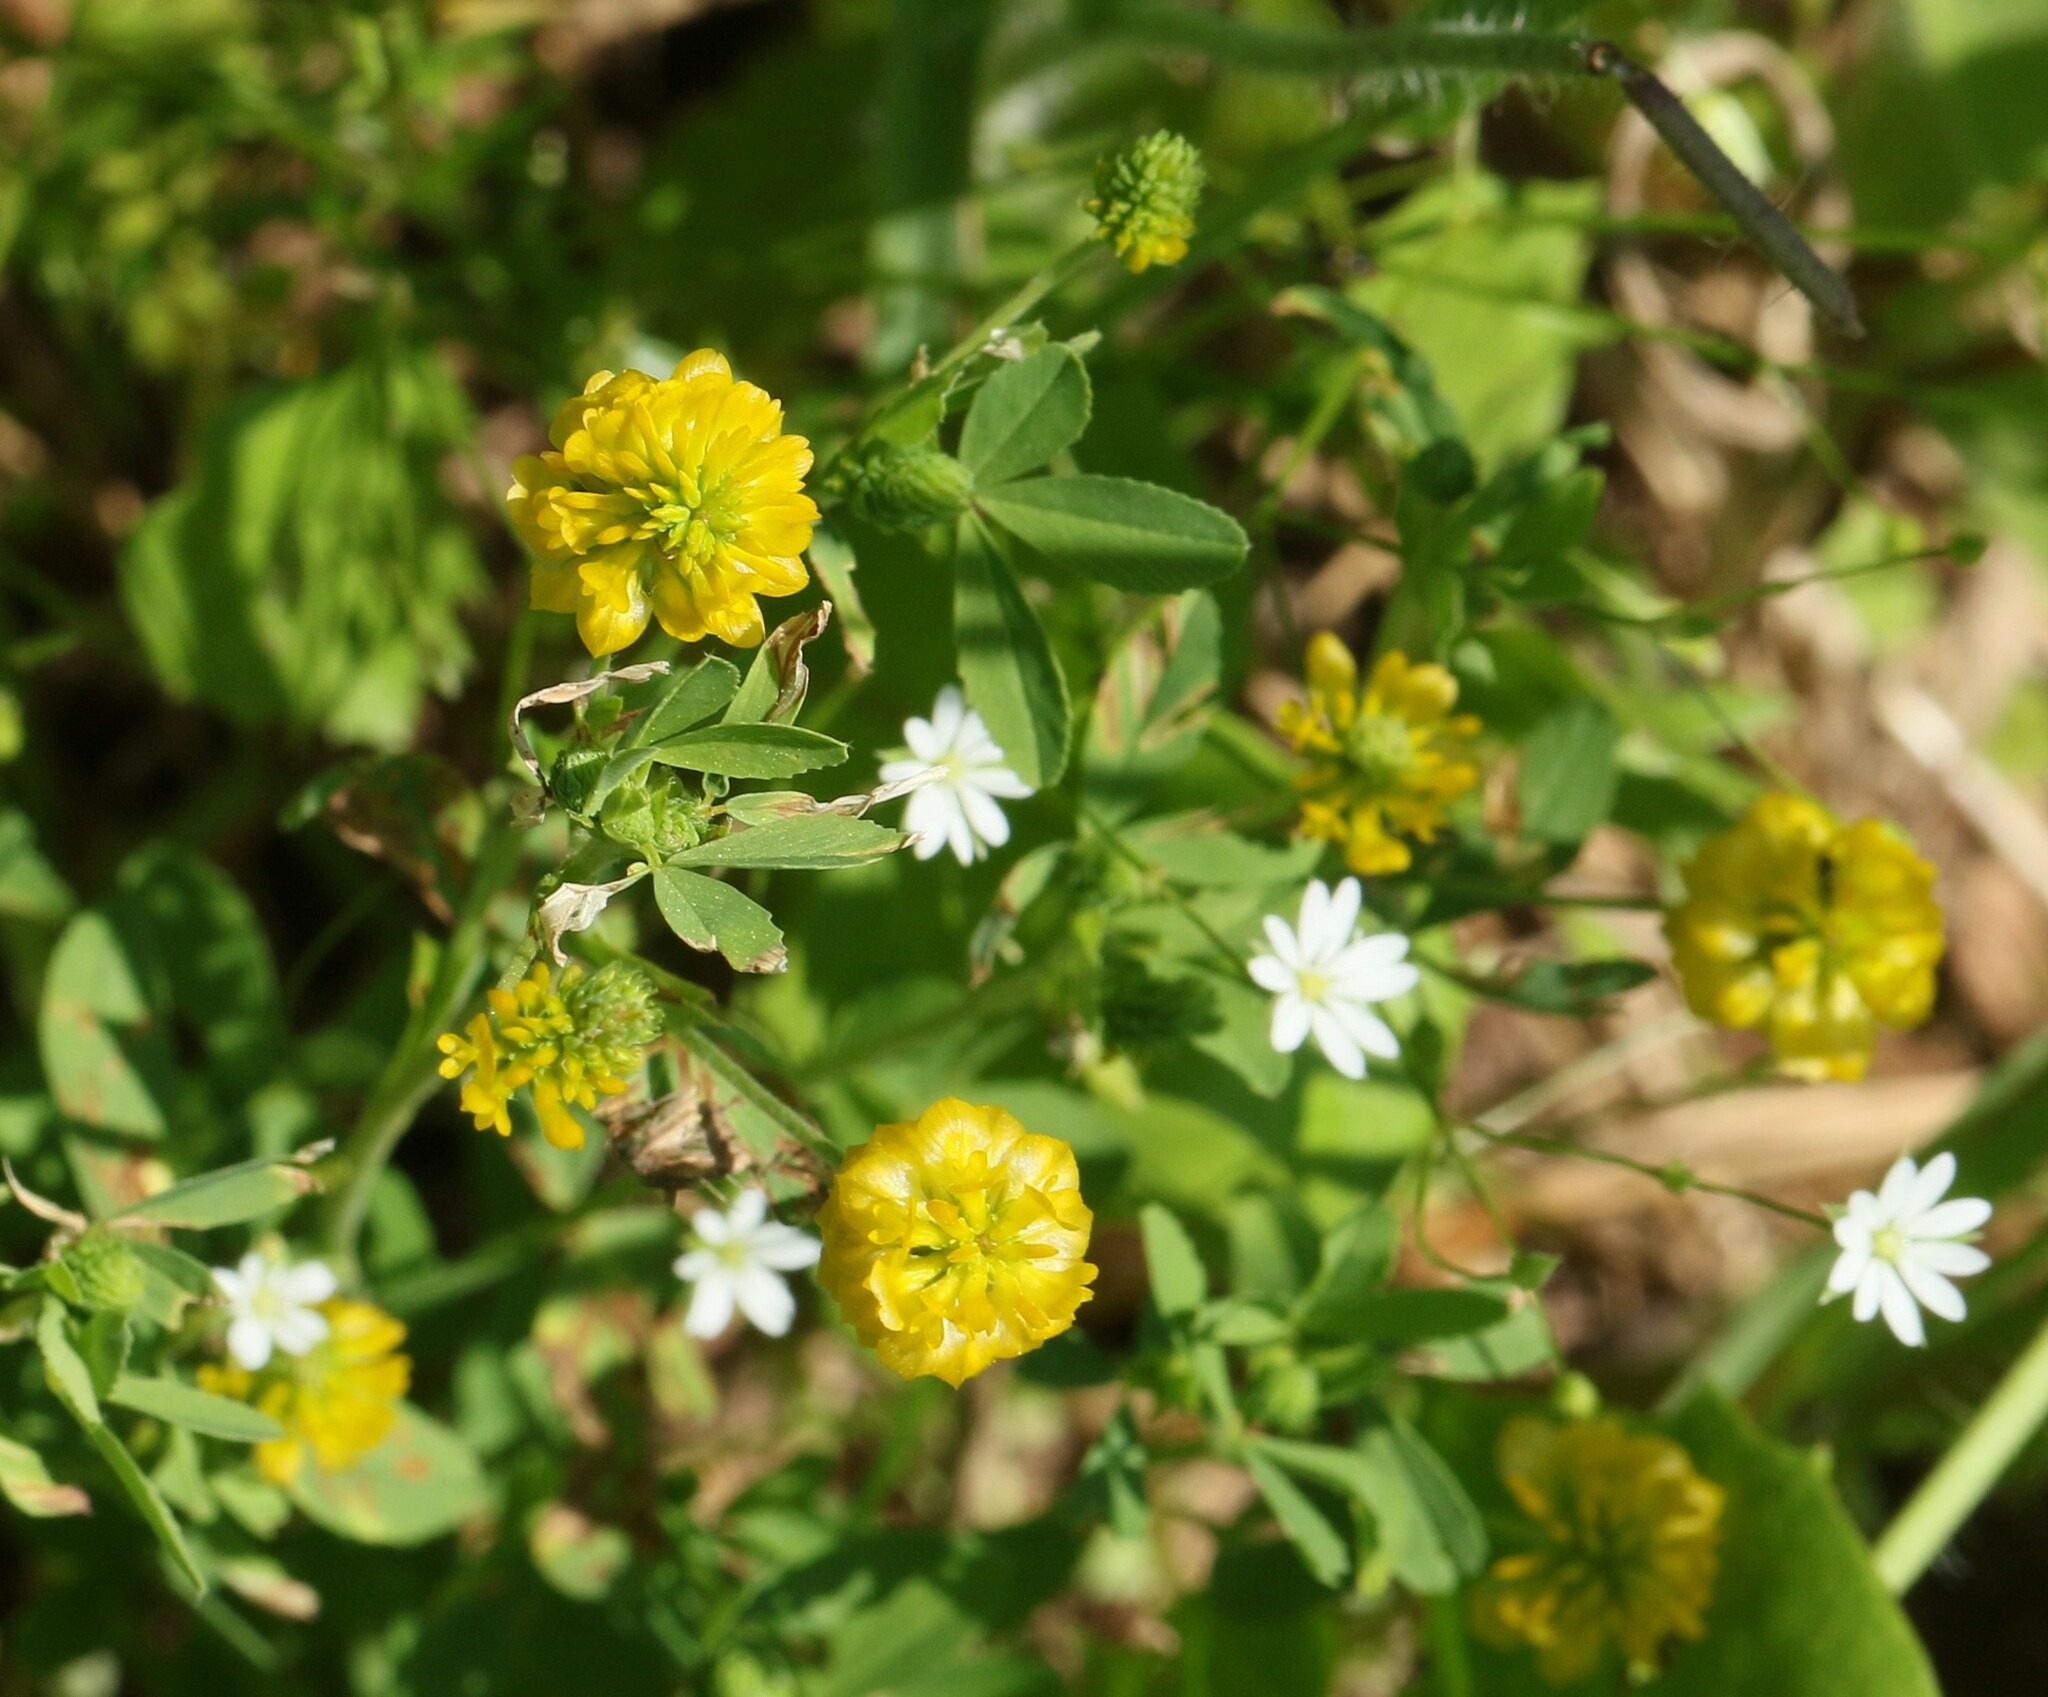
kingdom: Plantae
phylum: Tracheophyta
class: Magnoliopsida
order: Fabales
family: Fabaceae
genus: Trifolium
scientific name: Trifolium aureum
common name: Golden clover
